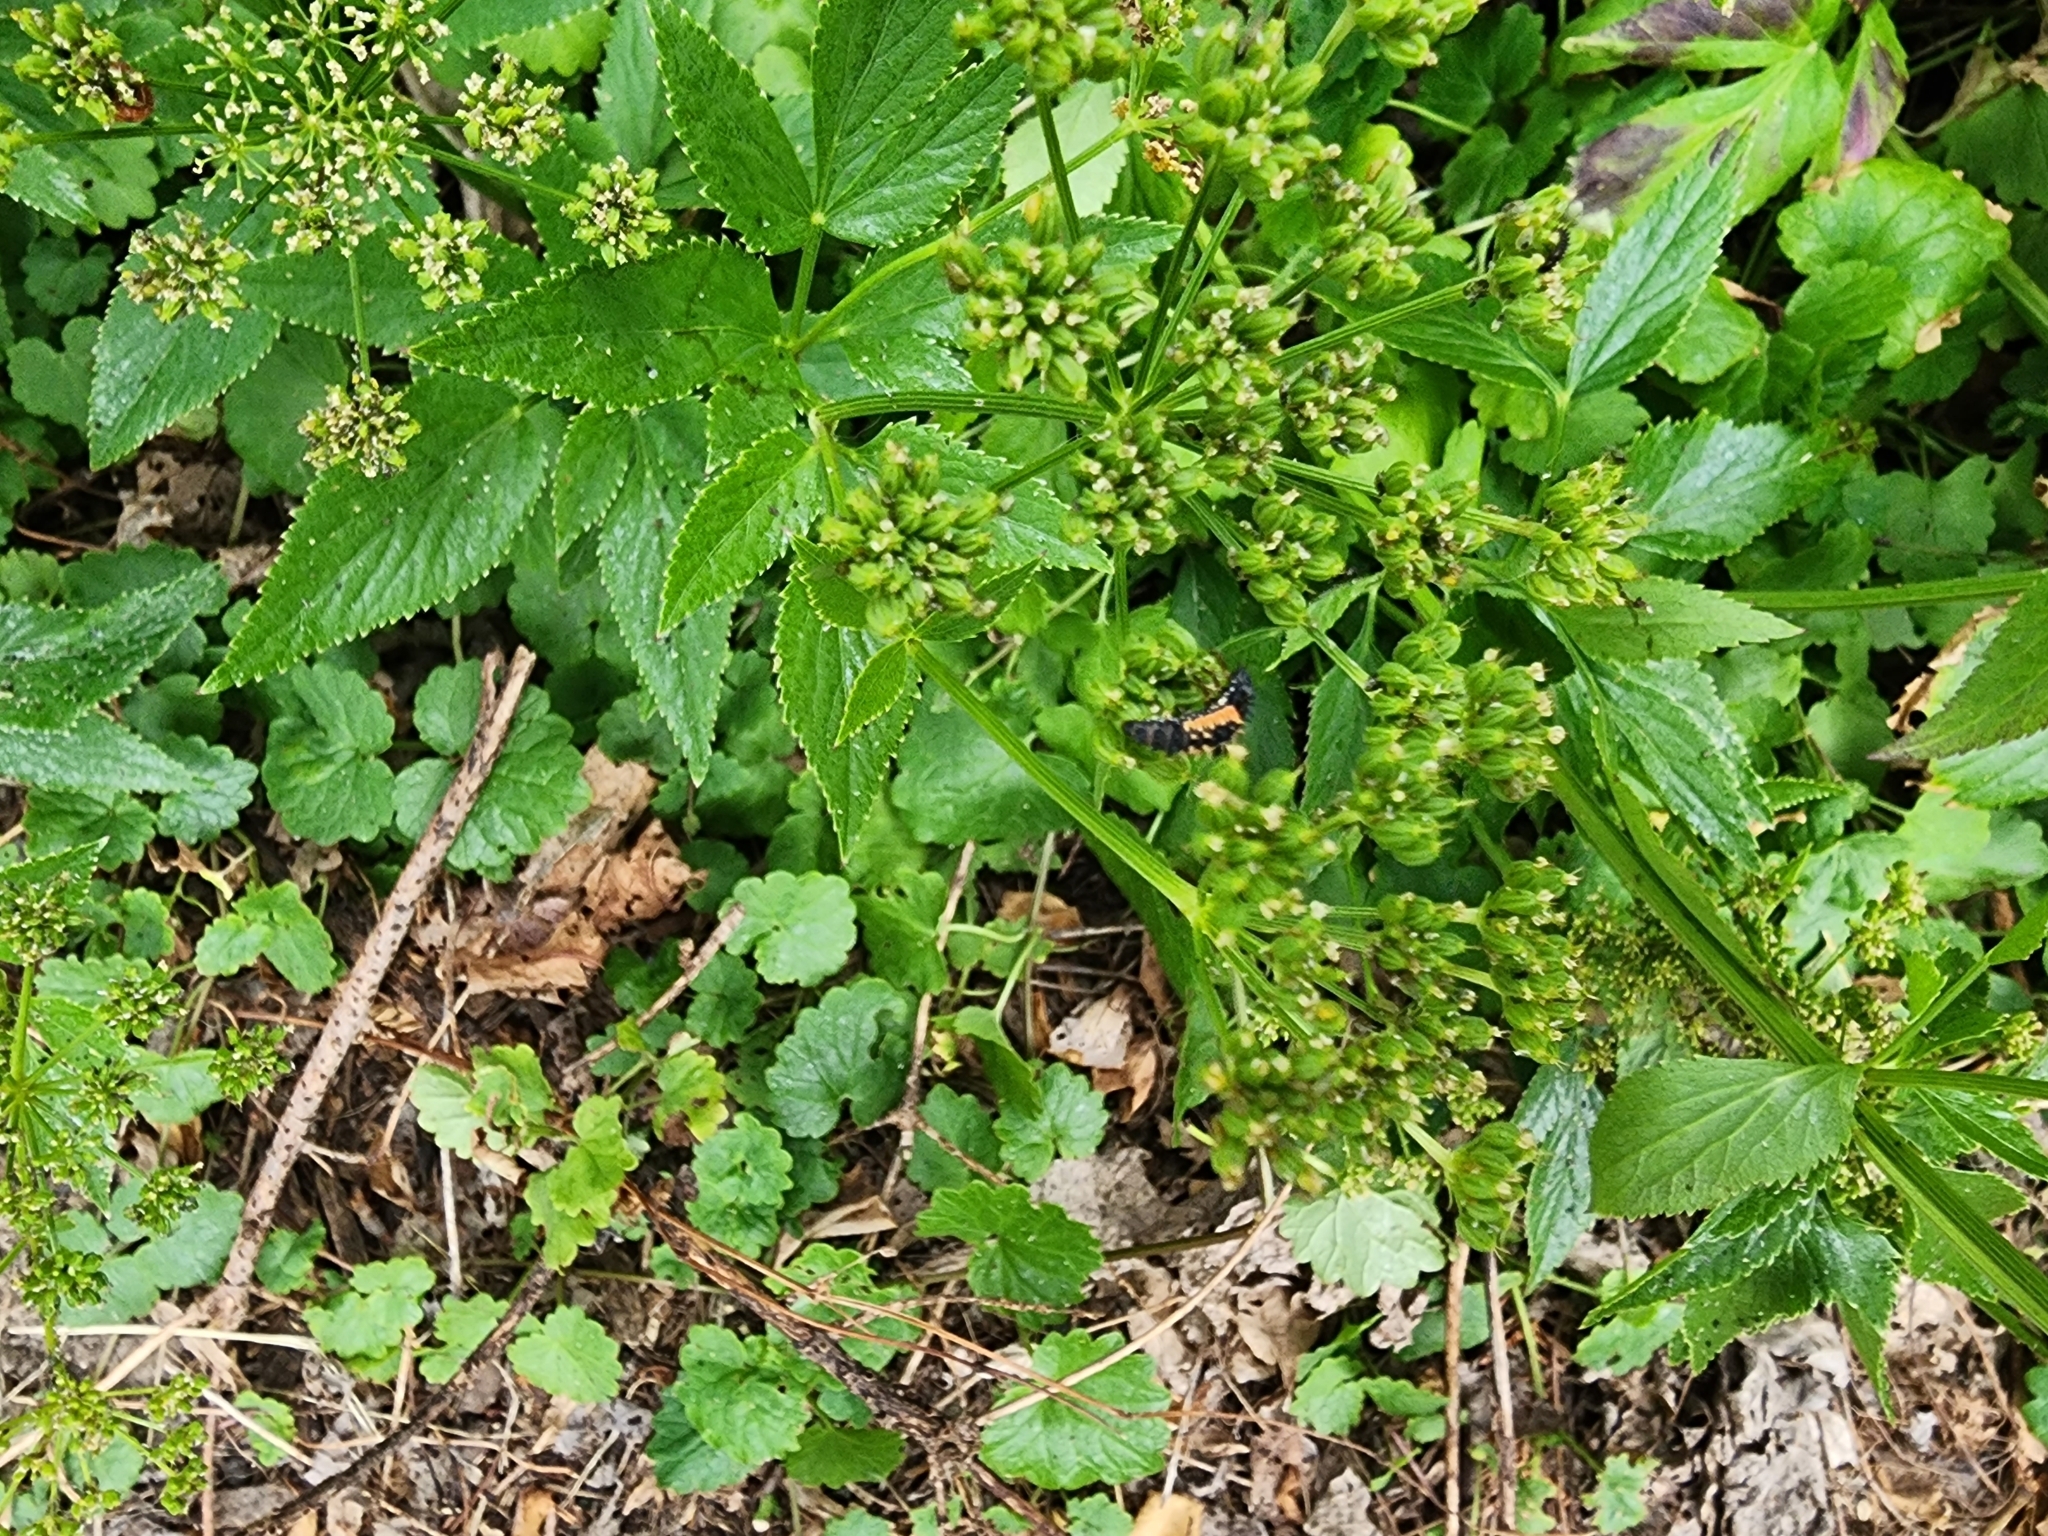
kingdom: Animalia
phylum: Arthropoda
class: Insecta
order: Coleoptera
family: Coccinellidae
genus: Harmonia
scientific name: Harmonia axyridis
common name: Harlequin ladybird
